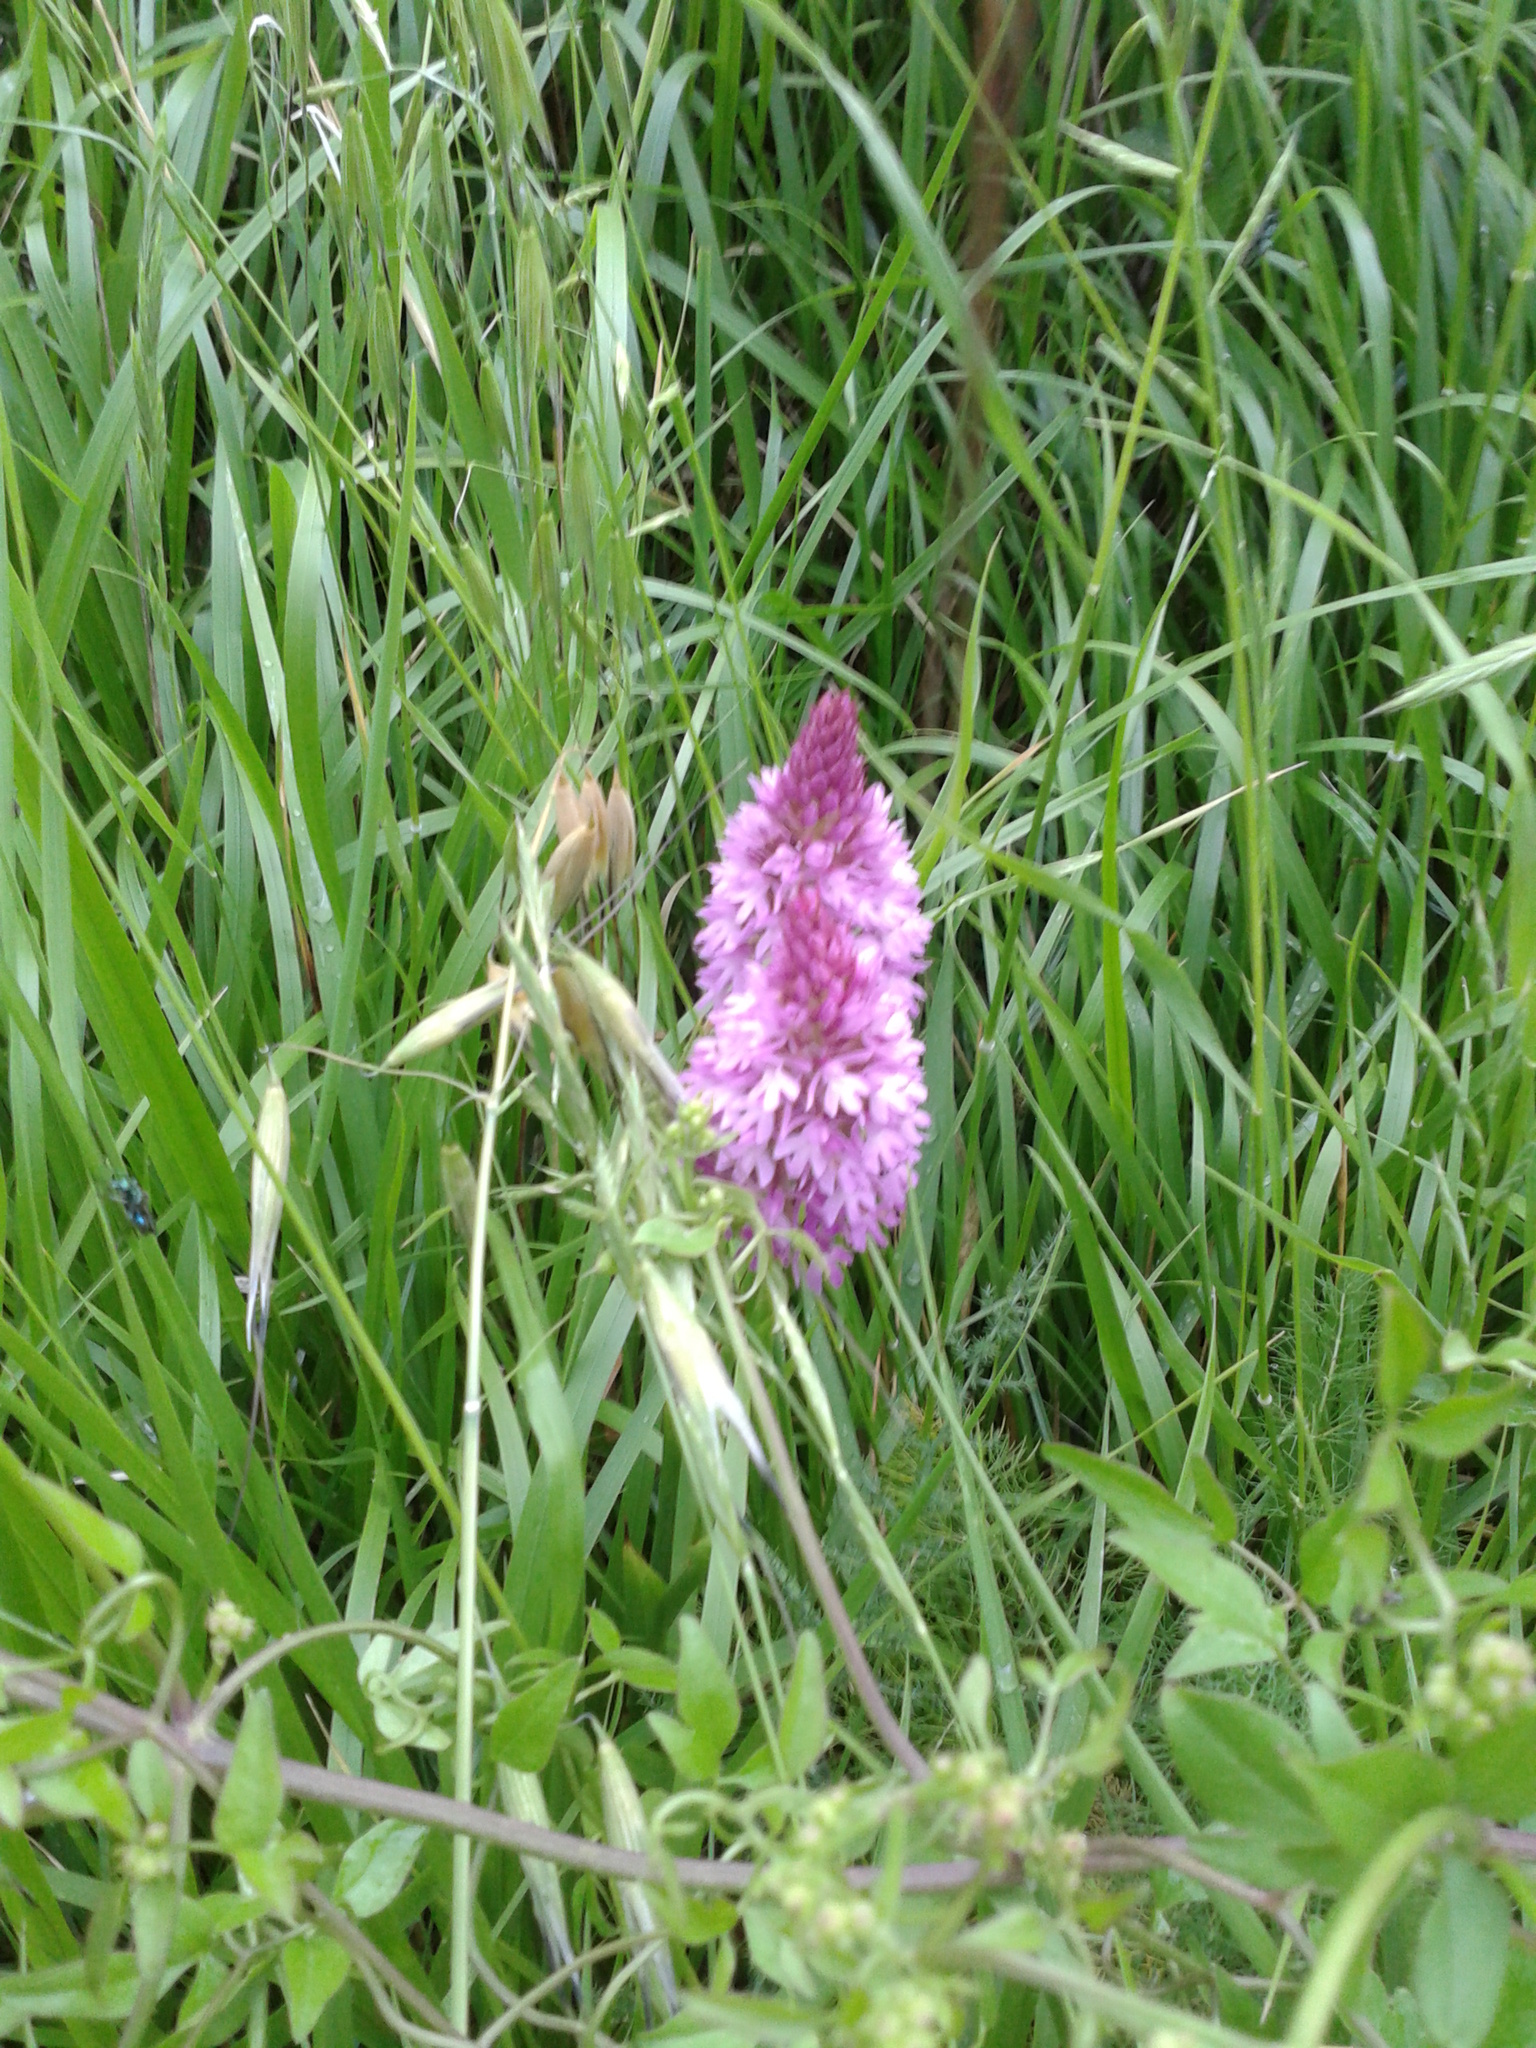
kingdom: Plantae
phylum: Tracheophyta
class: Liliopsida
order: Asparagales
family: Orchidaceae
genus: Anacamptis
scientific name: Anacamptis pyramidalis
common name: Pyramidal orchid
